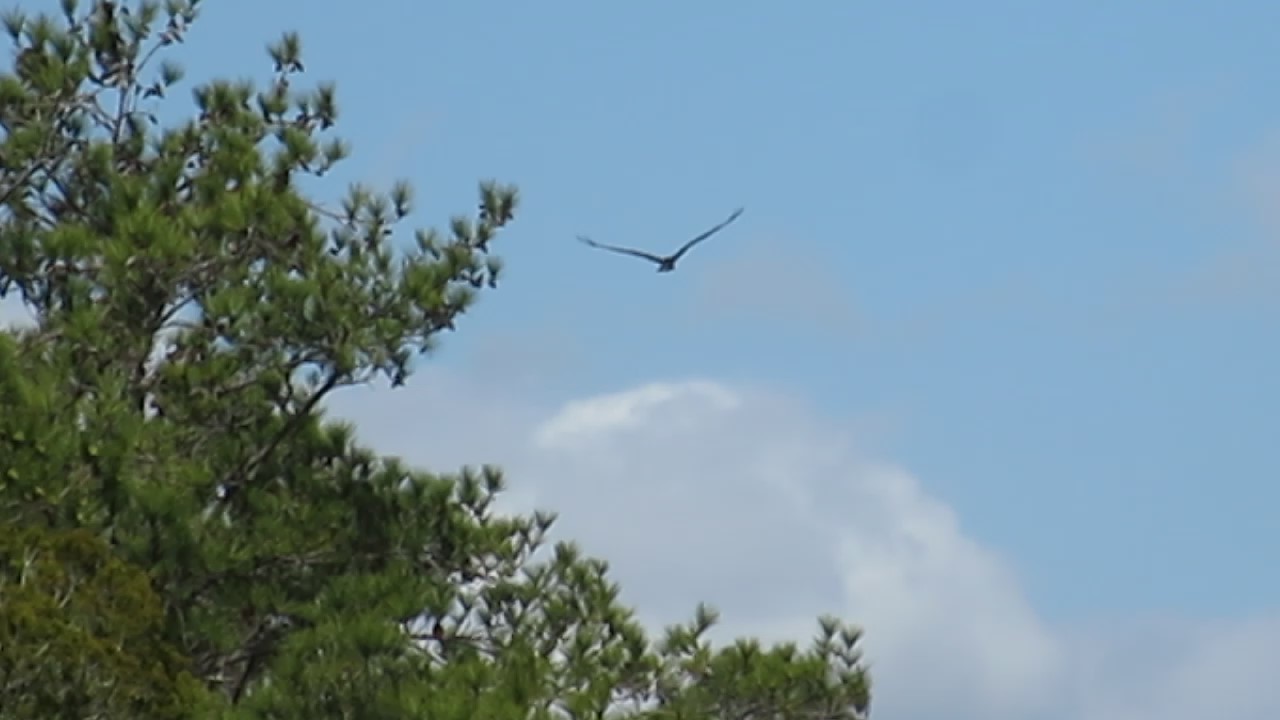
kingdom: Animalia
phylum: Chordata
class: Aves
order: Accipitriformes
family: Pandionidae
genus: Pandion
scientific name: Pandion haliaetus
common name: Osprey
